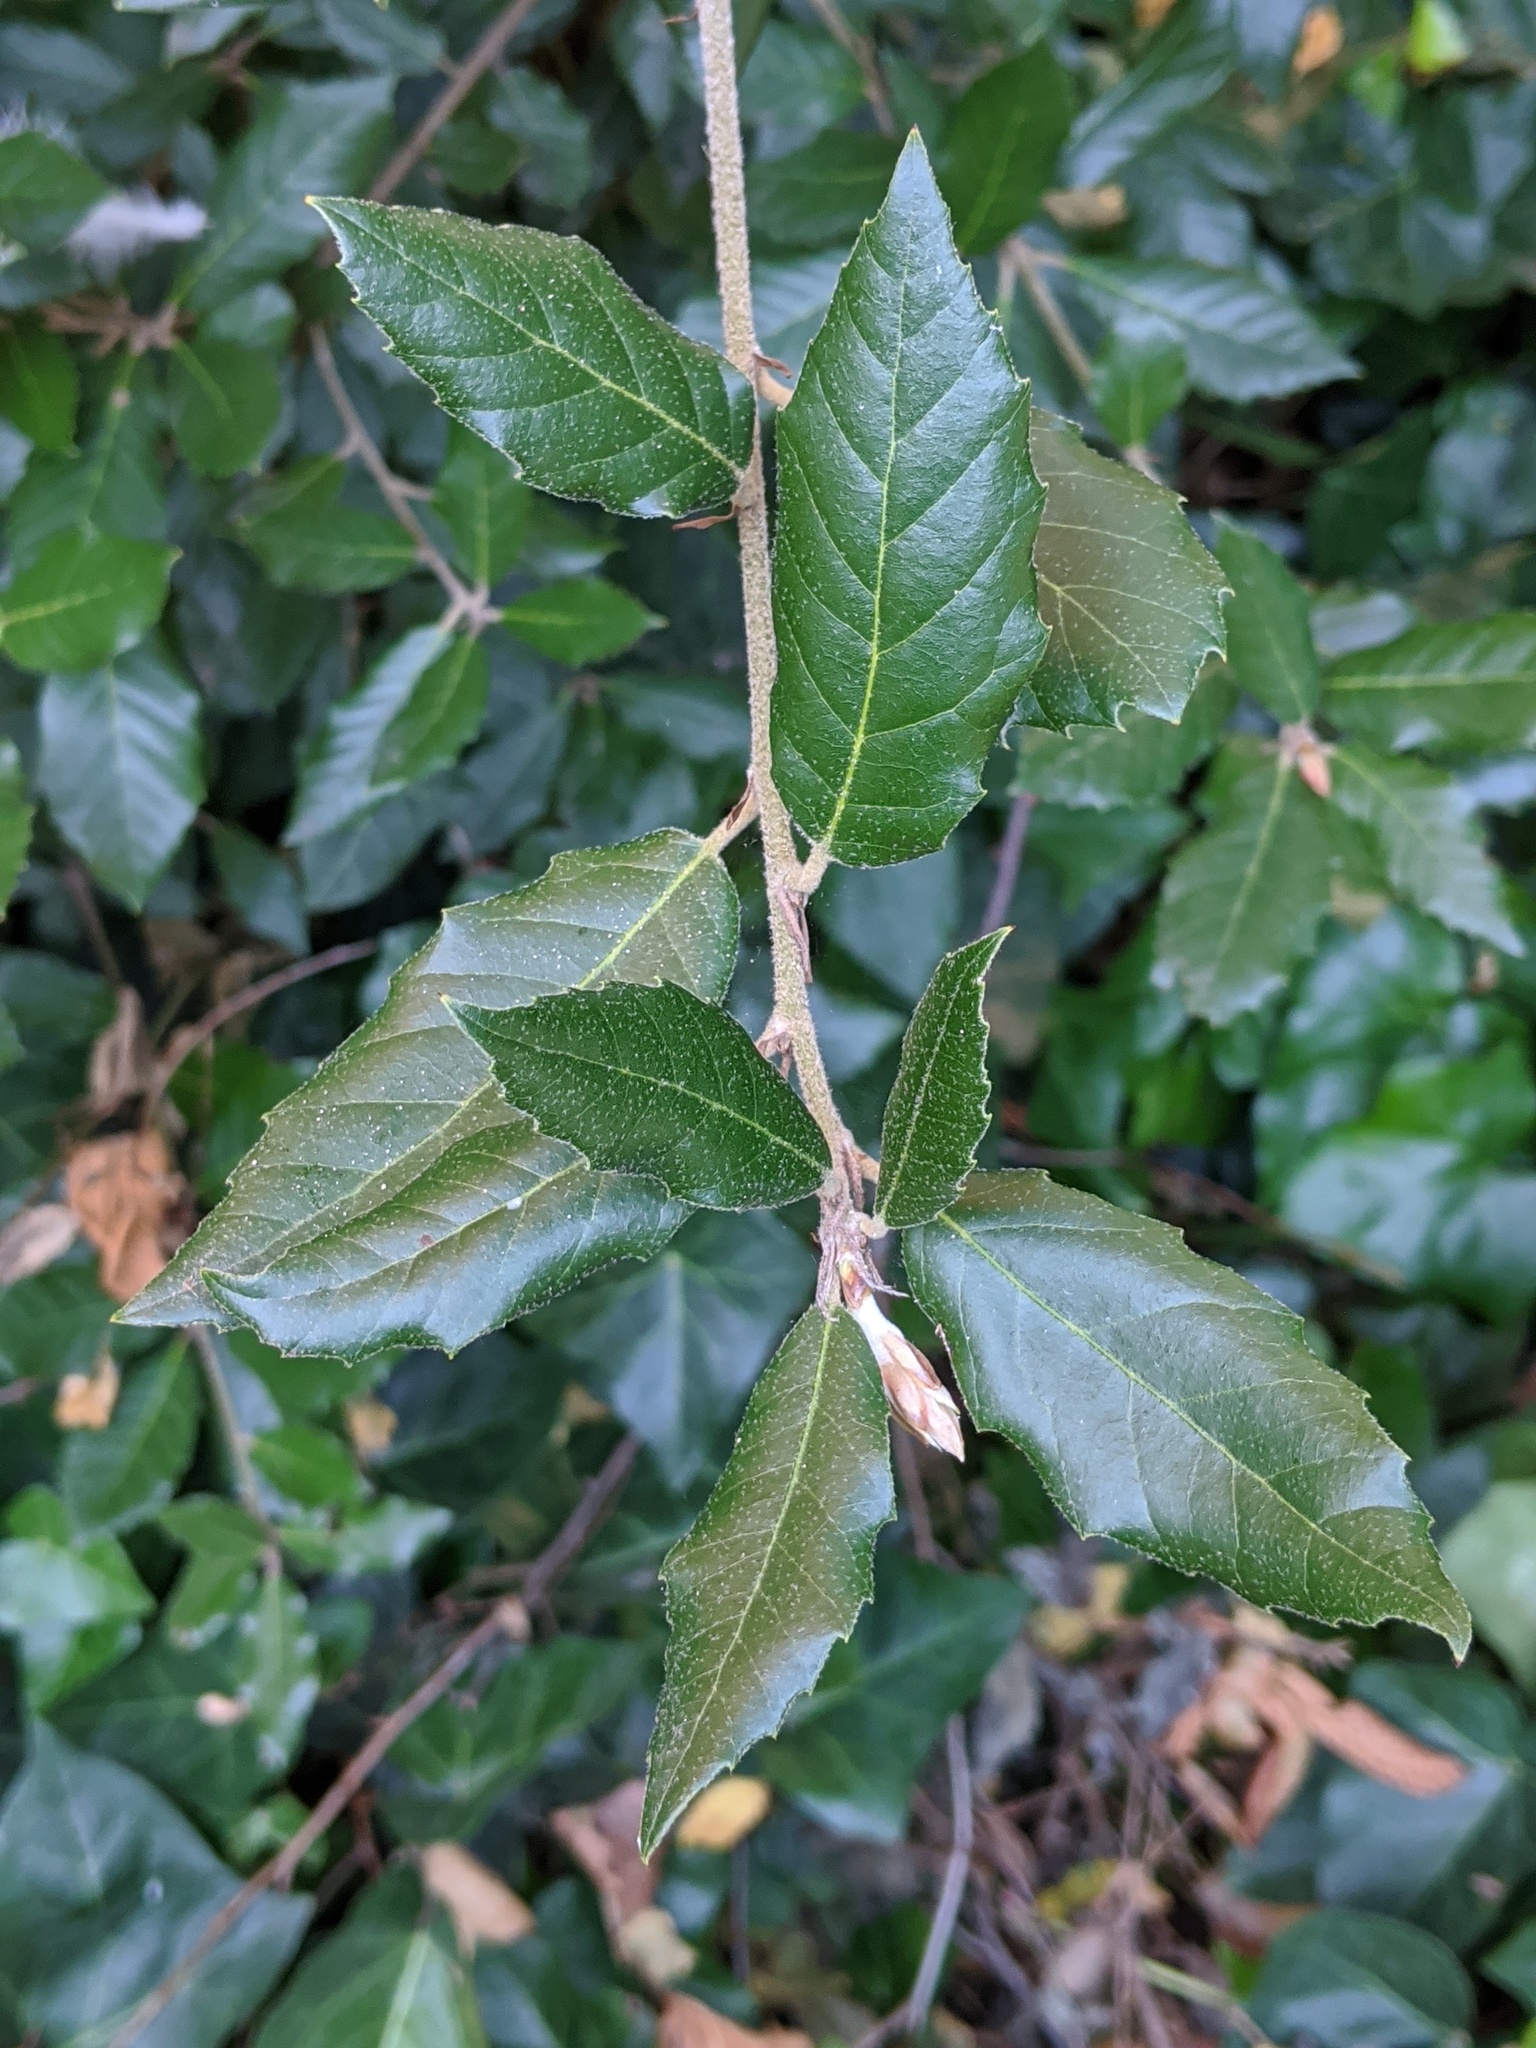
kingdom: Plantae
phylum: Tracheophyta
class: Magnoliopsida
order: Fagales
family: Fagaceae
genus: Quercus
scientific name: Quercus ilex
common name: Evergreen oak
